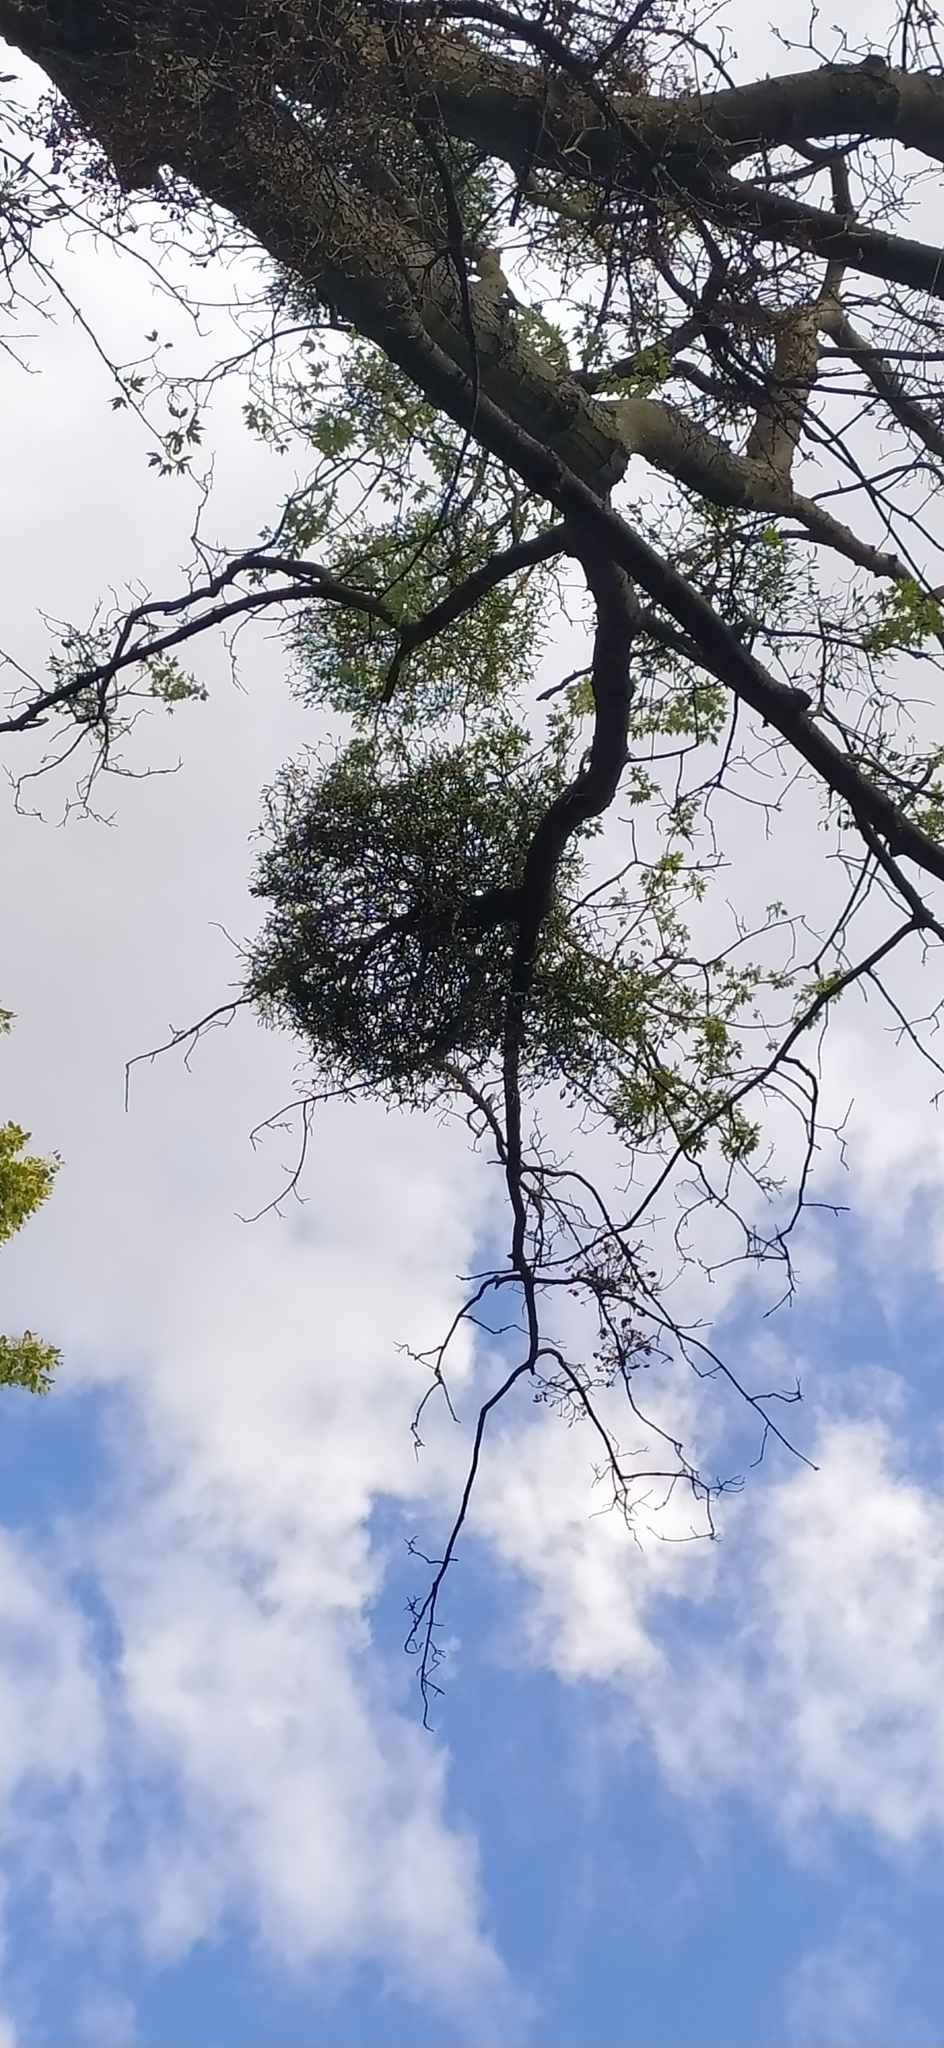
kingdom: Plantae
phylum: Tracheophyta
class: Magnoliopsida
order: Santalales
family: Viscaceae
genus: Viscum
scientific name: Viscum album
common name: Mistletoe
